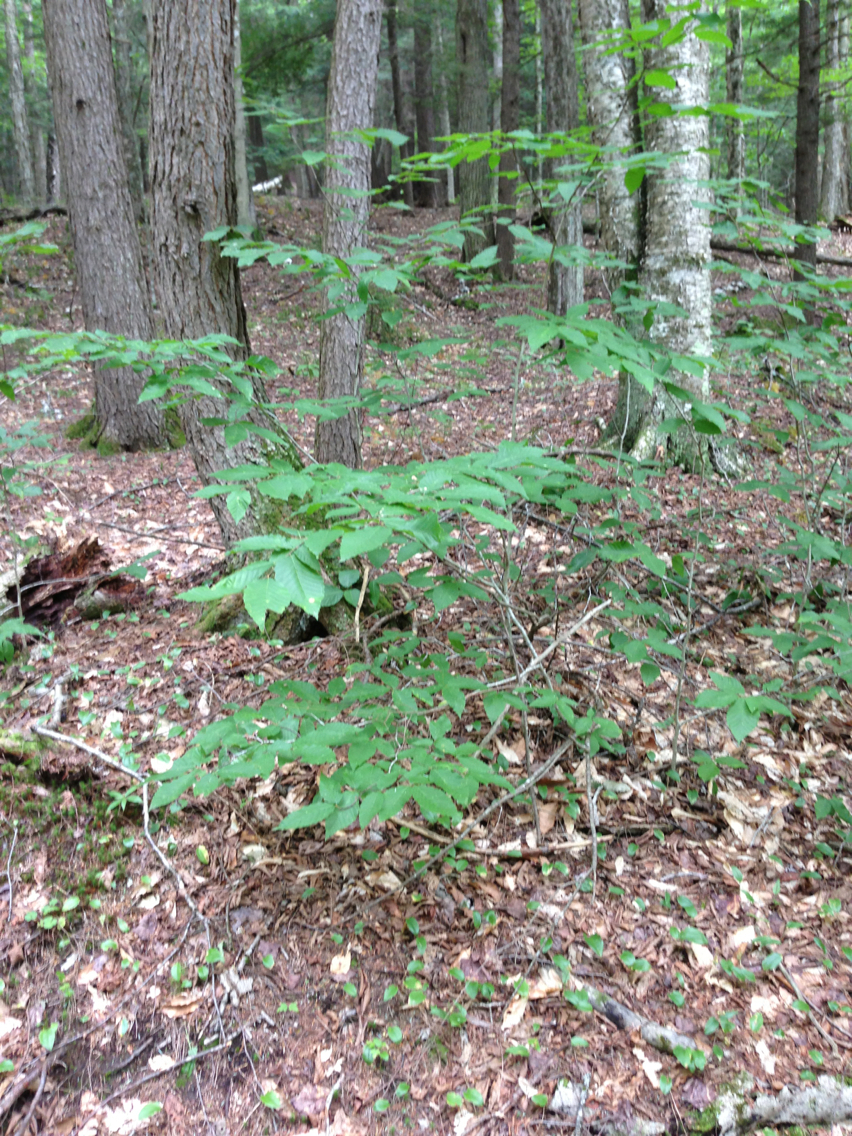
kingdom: Plantae
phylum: Tracheophyta
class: Magnoliopsida
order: Fagales
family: Fagaceae
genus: Fagus
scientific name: Fagus grandifolia
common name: American beech
